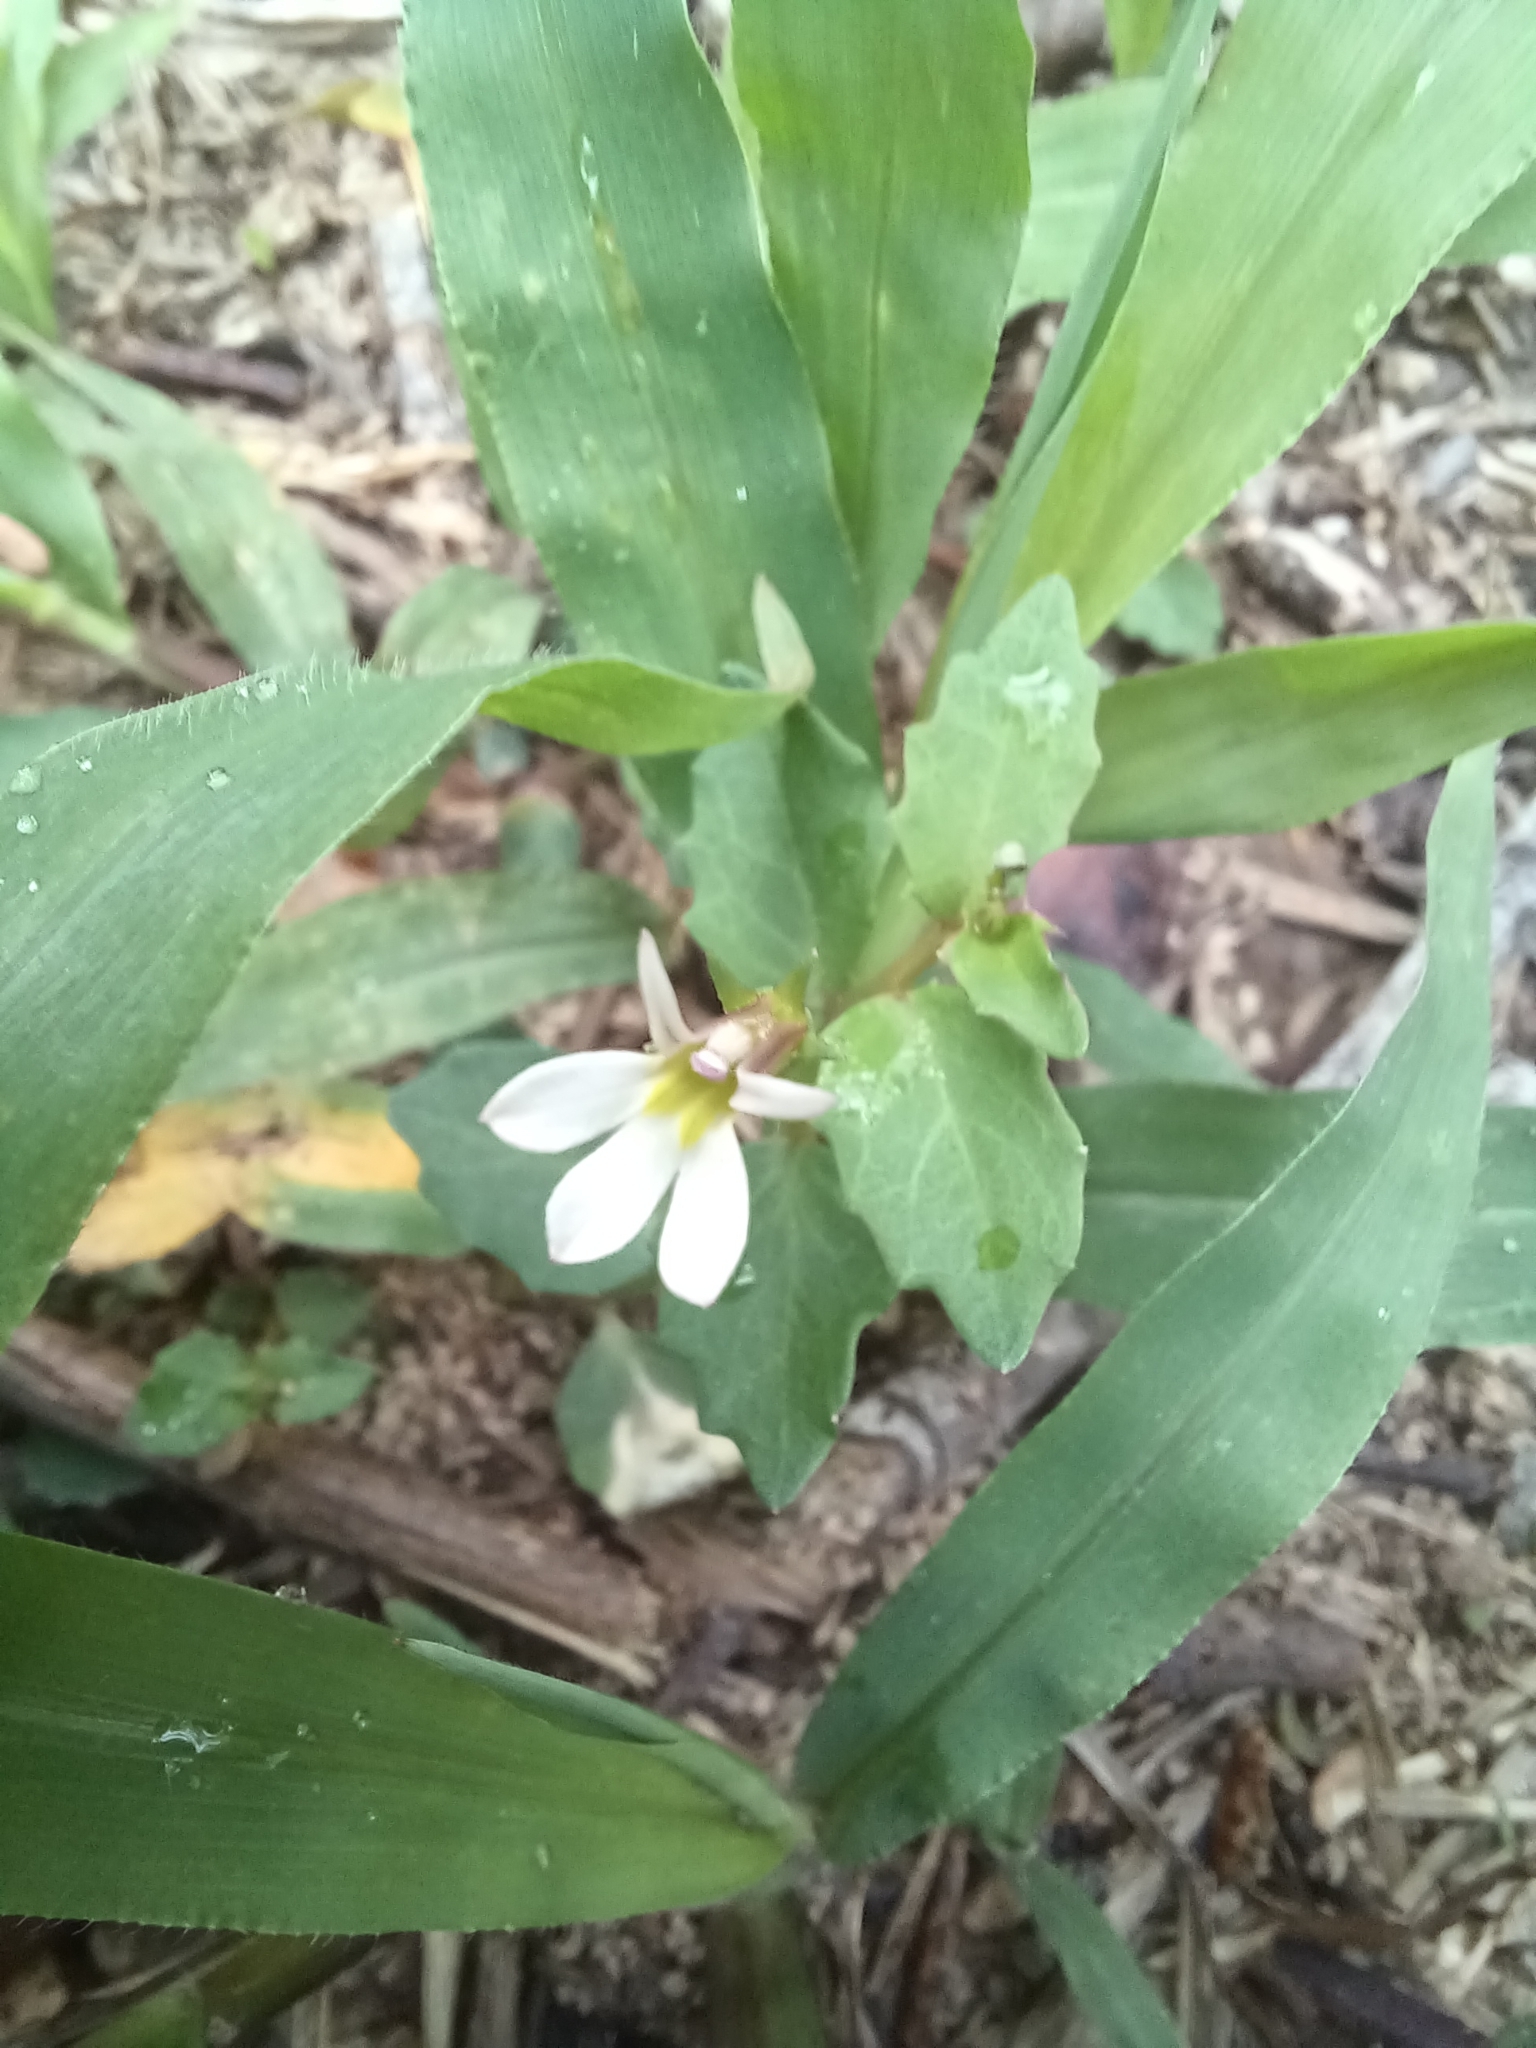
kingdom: Plantae
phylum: Tracheophyta
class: Magnoliopsida
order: Asterales
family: Campanulaceae
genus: Lobelia
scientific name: Lobelia purpurascens
